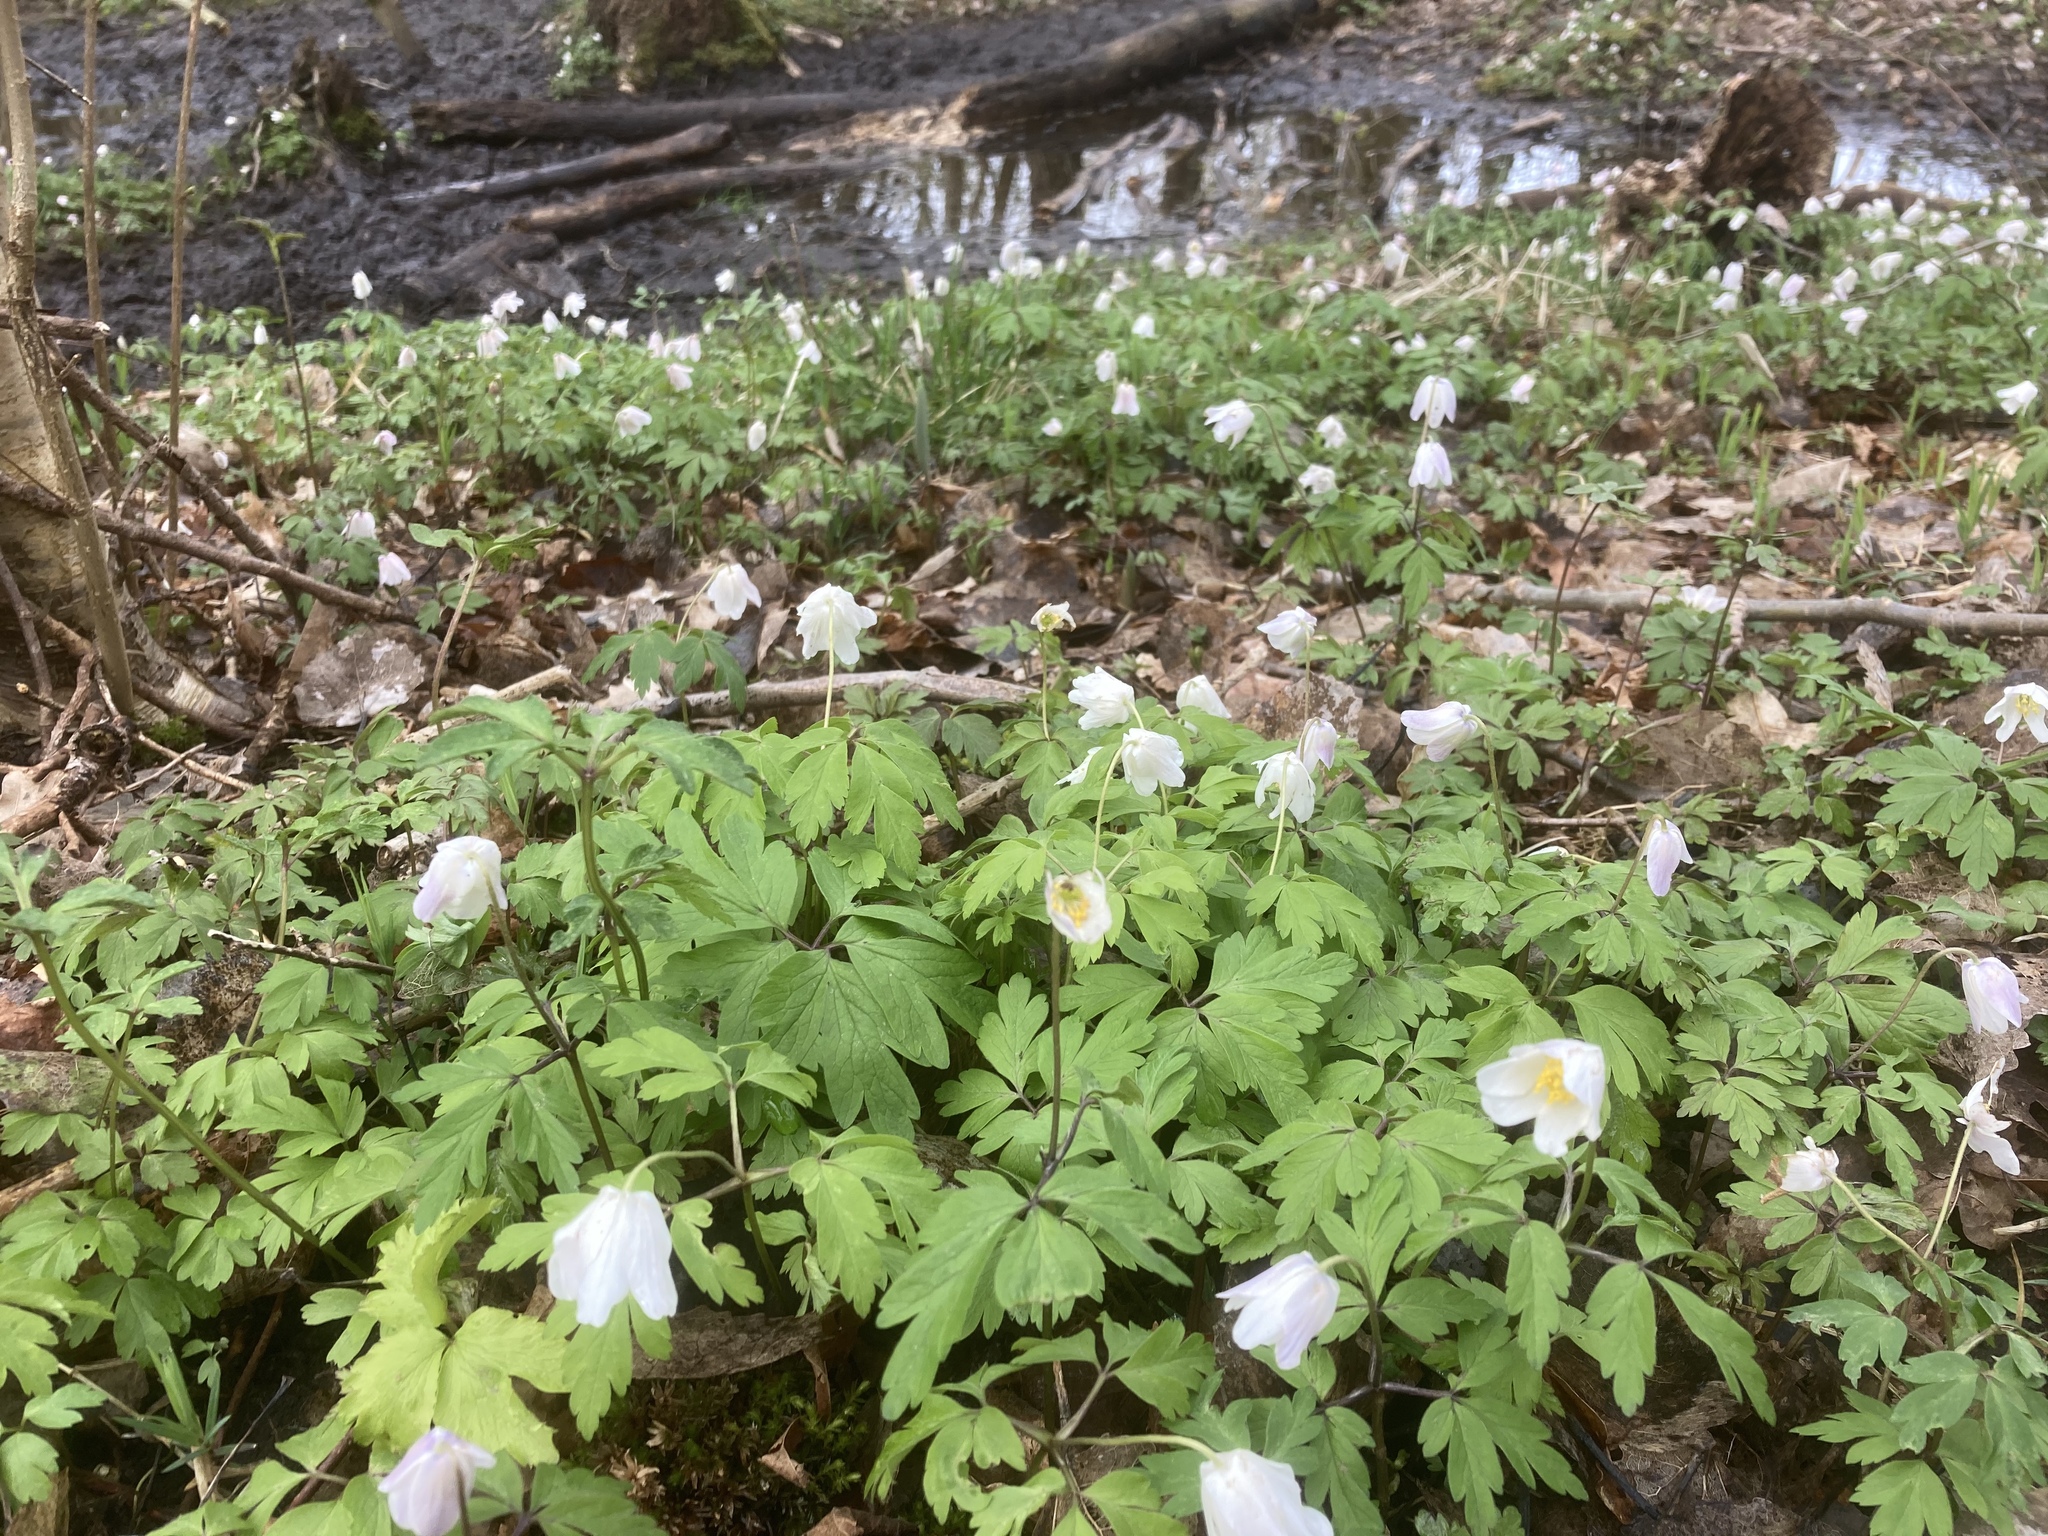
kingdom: Plantae
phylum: Tracheophyta
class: Magnoliopsida
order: Ranunculales
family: Ranunculaceae
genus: Anemone
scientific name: Anemone nemorosa
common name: Wood anemone
